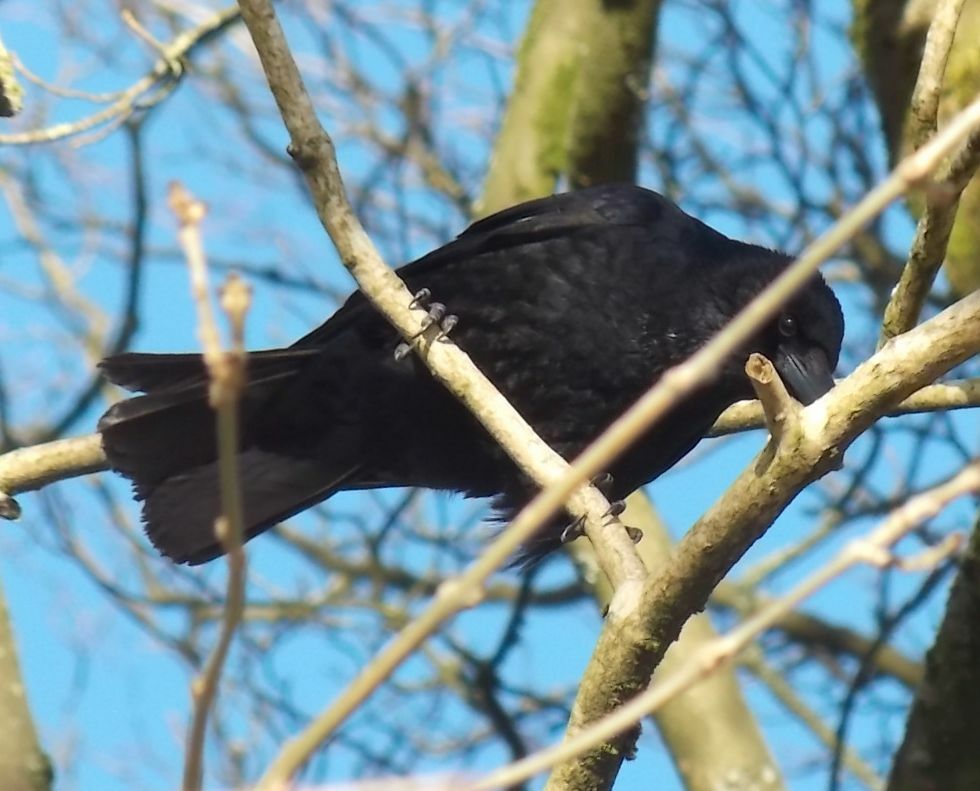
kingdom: Animalia
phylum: Chordata
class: Aves
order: Passeriformes
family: Corvidae
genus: Corvus
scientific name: Corvus corone
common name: Carrion crow
